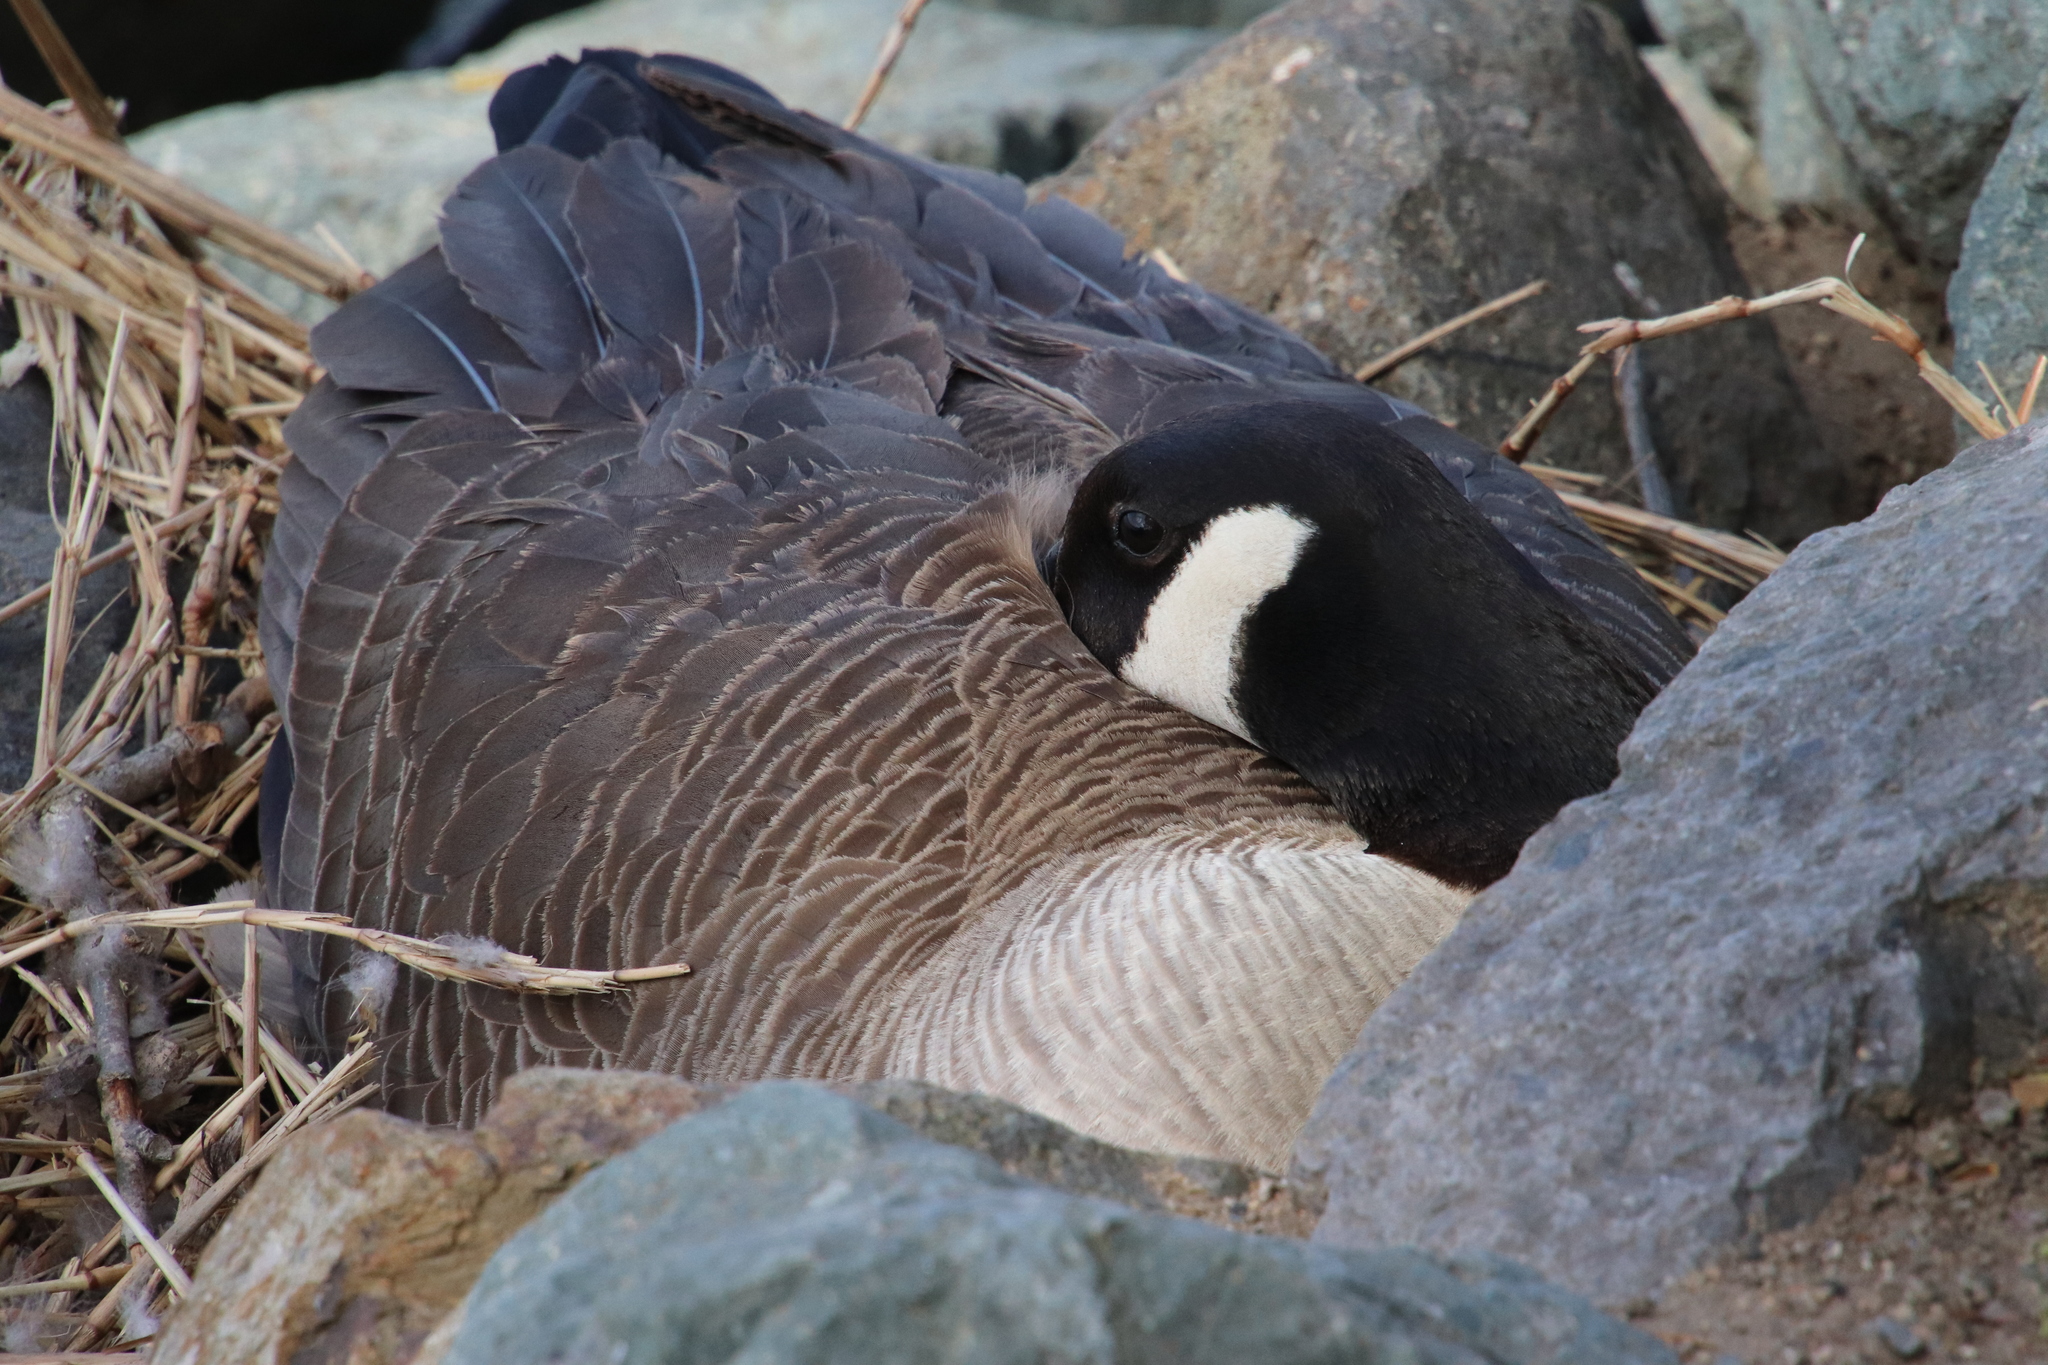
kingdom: Animalia
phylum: Chordata
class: Aves
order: Anseriformes
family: Anatidae
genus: Branta
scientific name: Branta canadensis
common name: Canada goose
